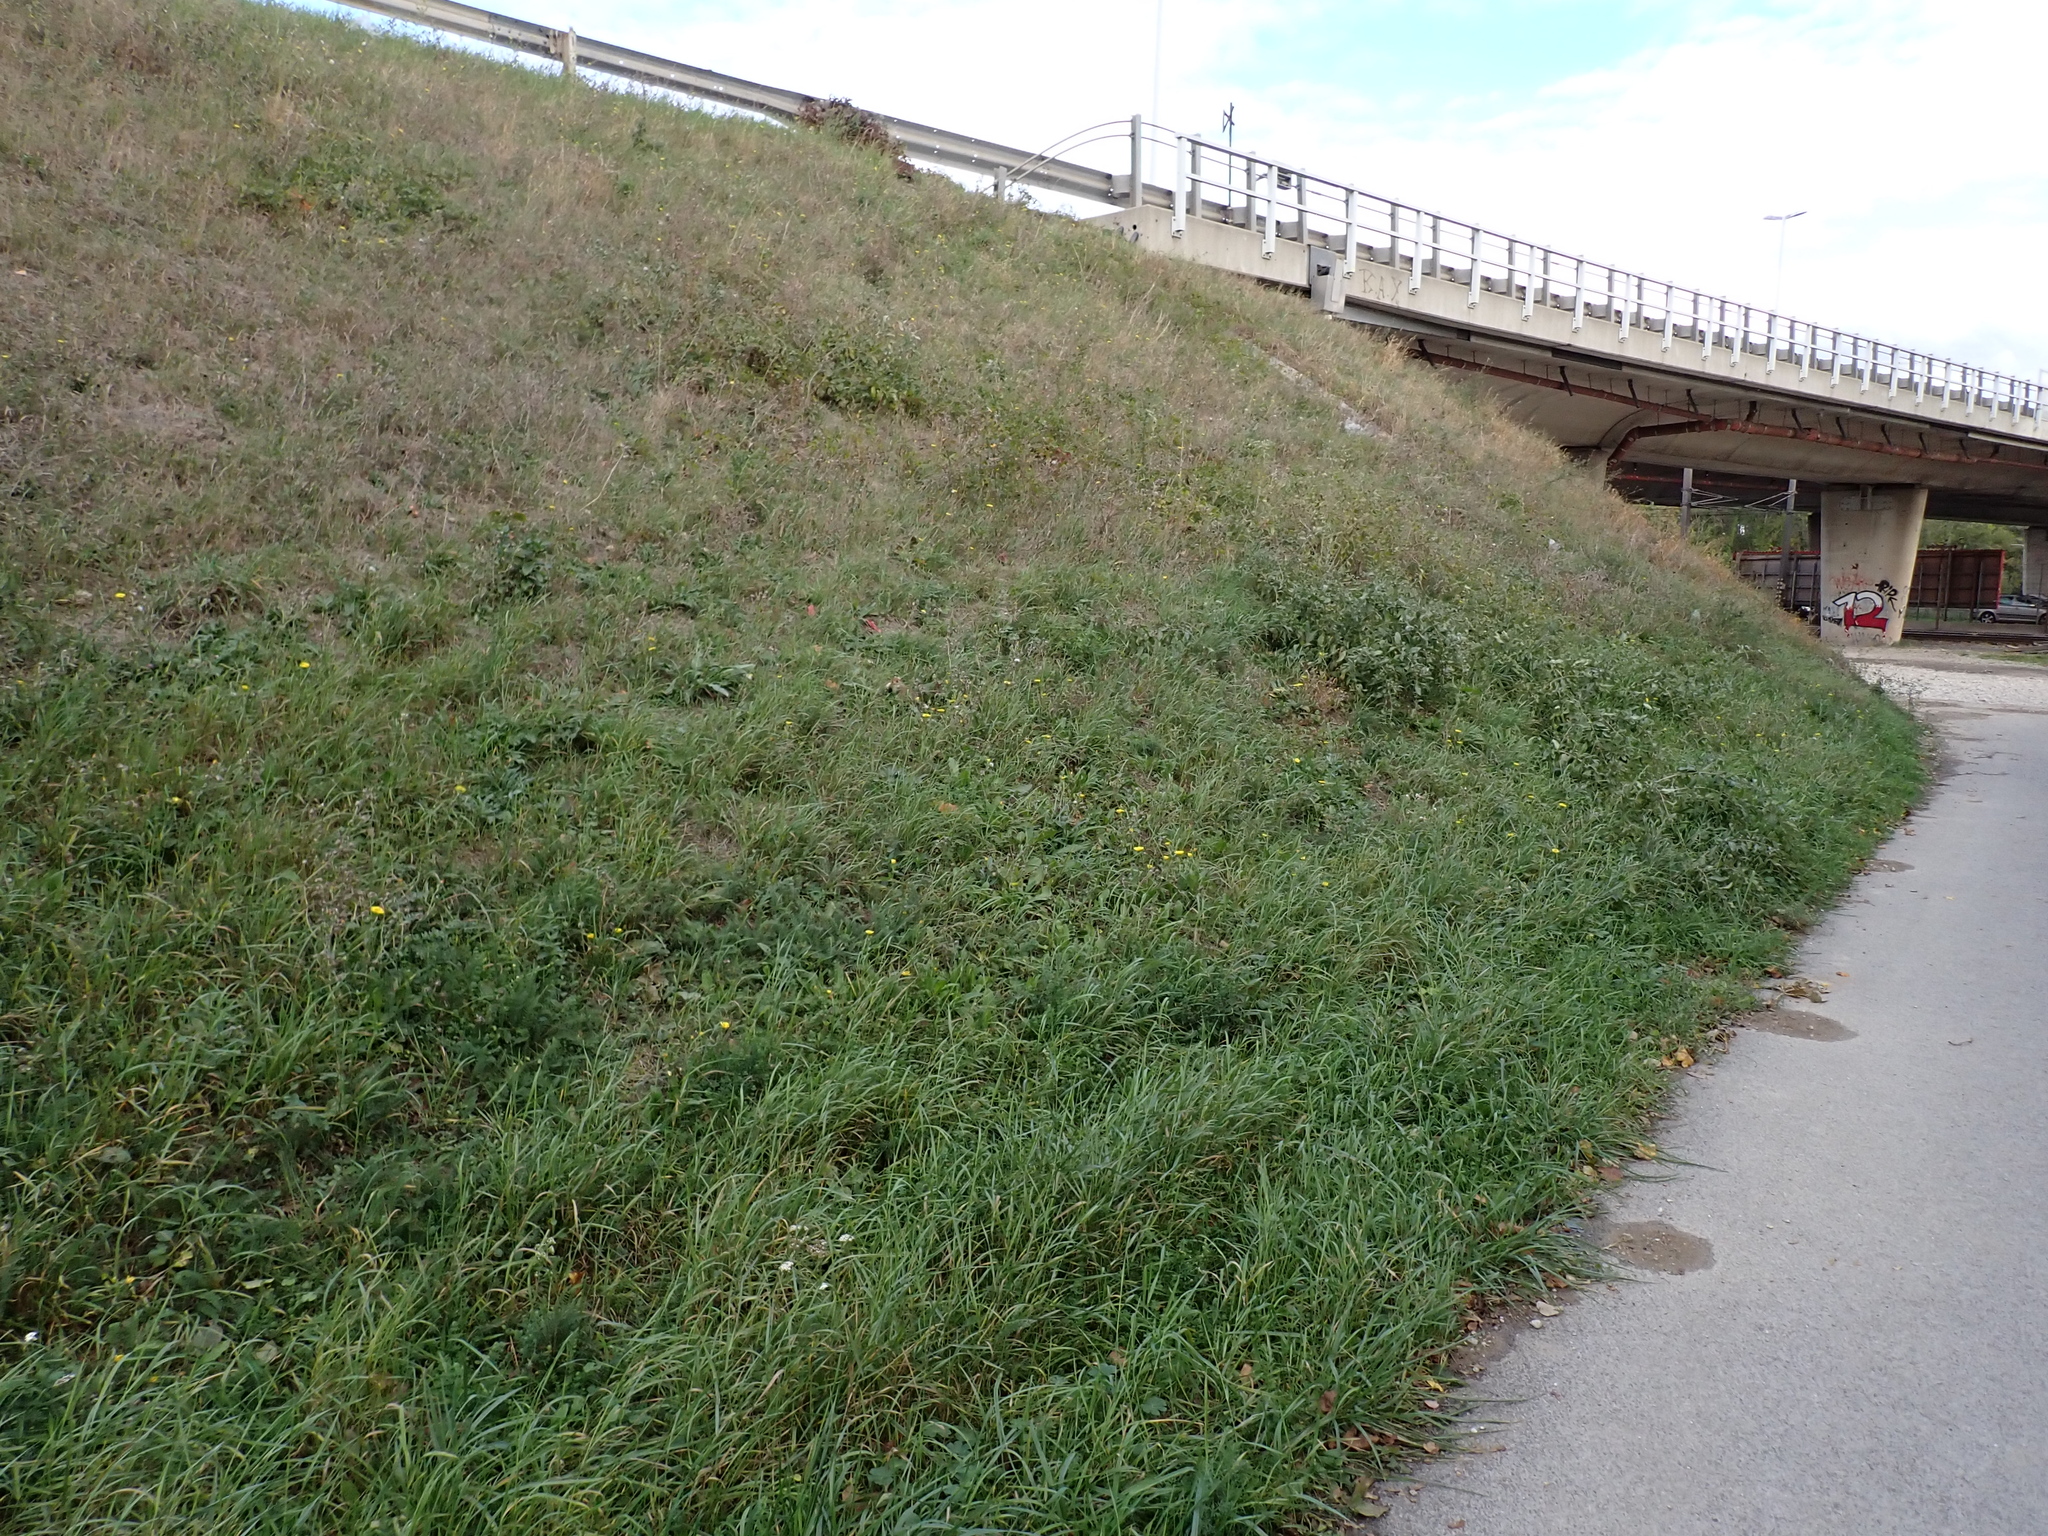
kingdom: Animalia
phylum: Chordata
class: Mammalia
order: Rodentia
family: Cricetidae
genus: Cricetus
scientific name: Cricetus cricetus
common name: Common hamster
